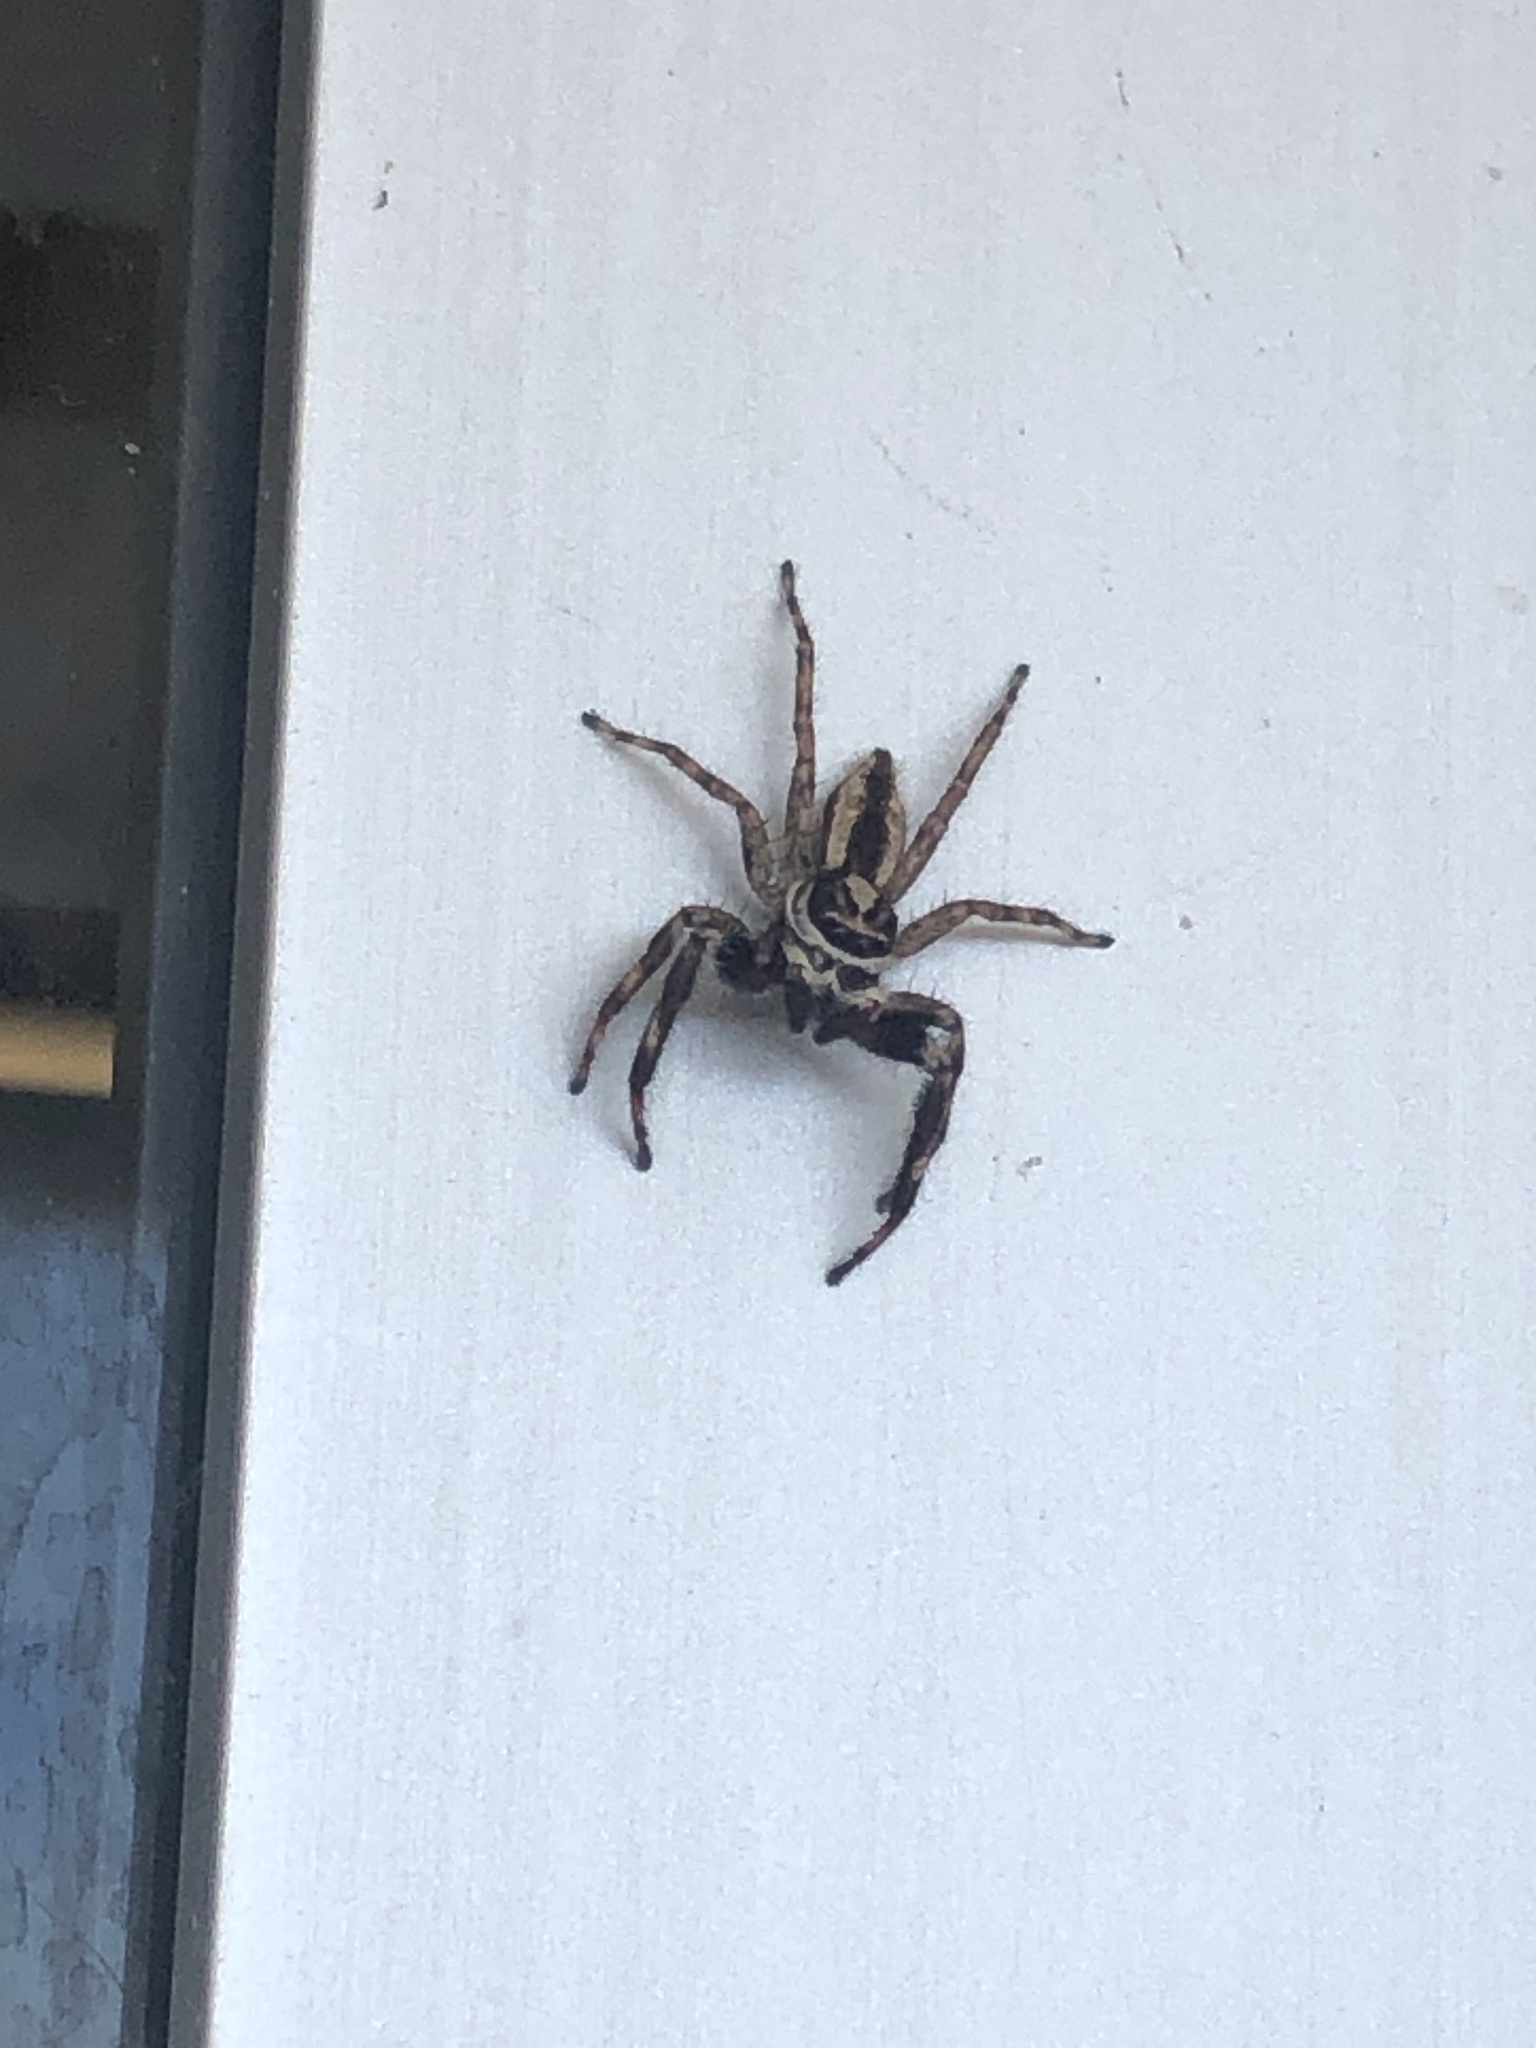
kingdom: Animalia
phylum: Arthropoda
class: Arachnida
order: Araneae
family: Salticidae
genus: Menemerus
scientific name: Menemerus bivittatus
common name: Gray wall jumper
